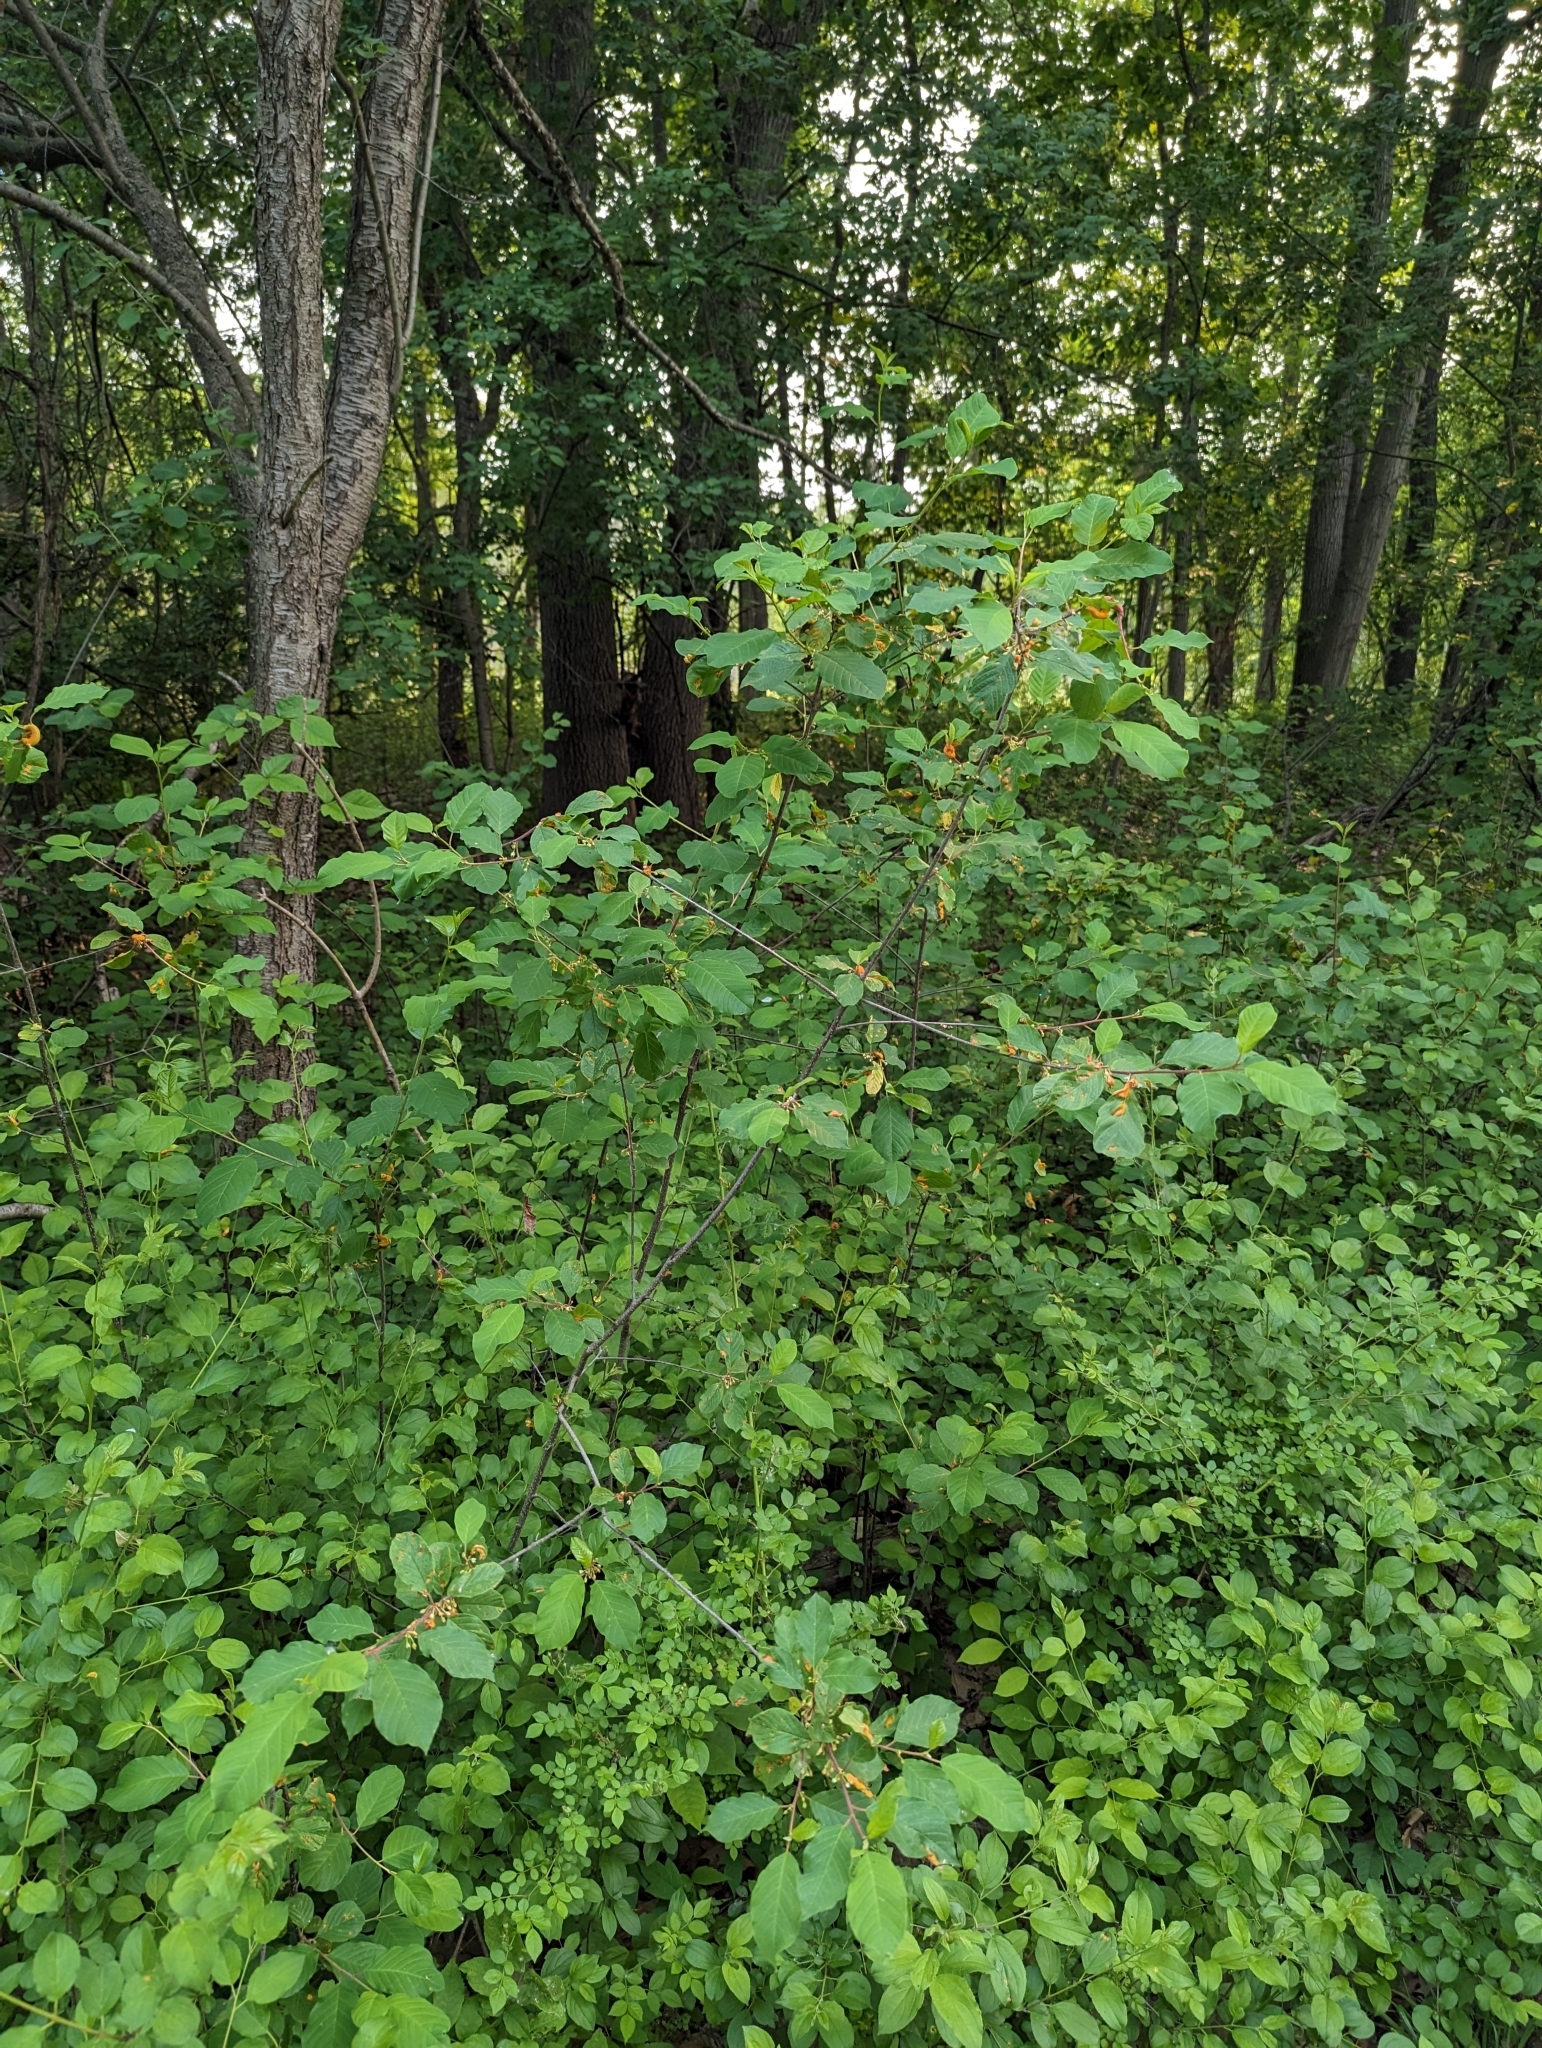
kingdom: Plantae
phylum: Tracheophyta
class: Magnoliopsida
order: Rosales
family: Rhamnaceae
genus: Frangula
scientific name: Frangula alnus
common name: Alder buckthorn
